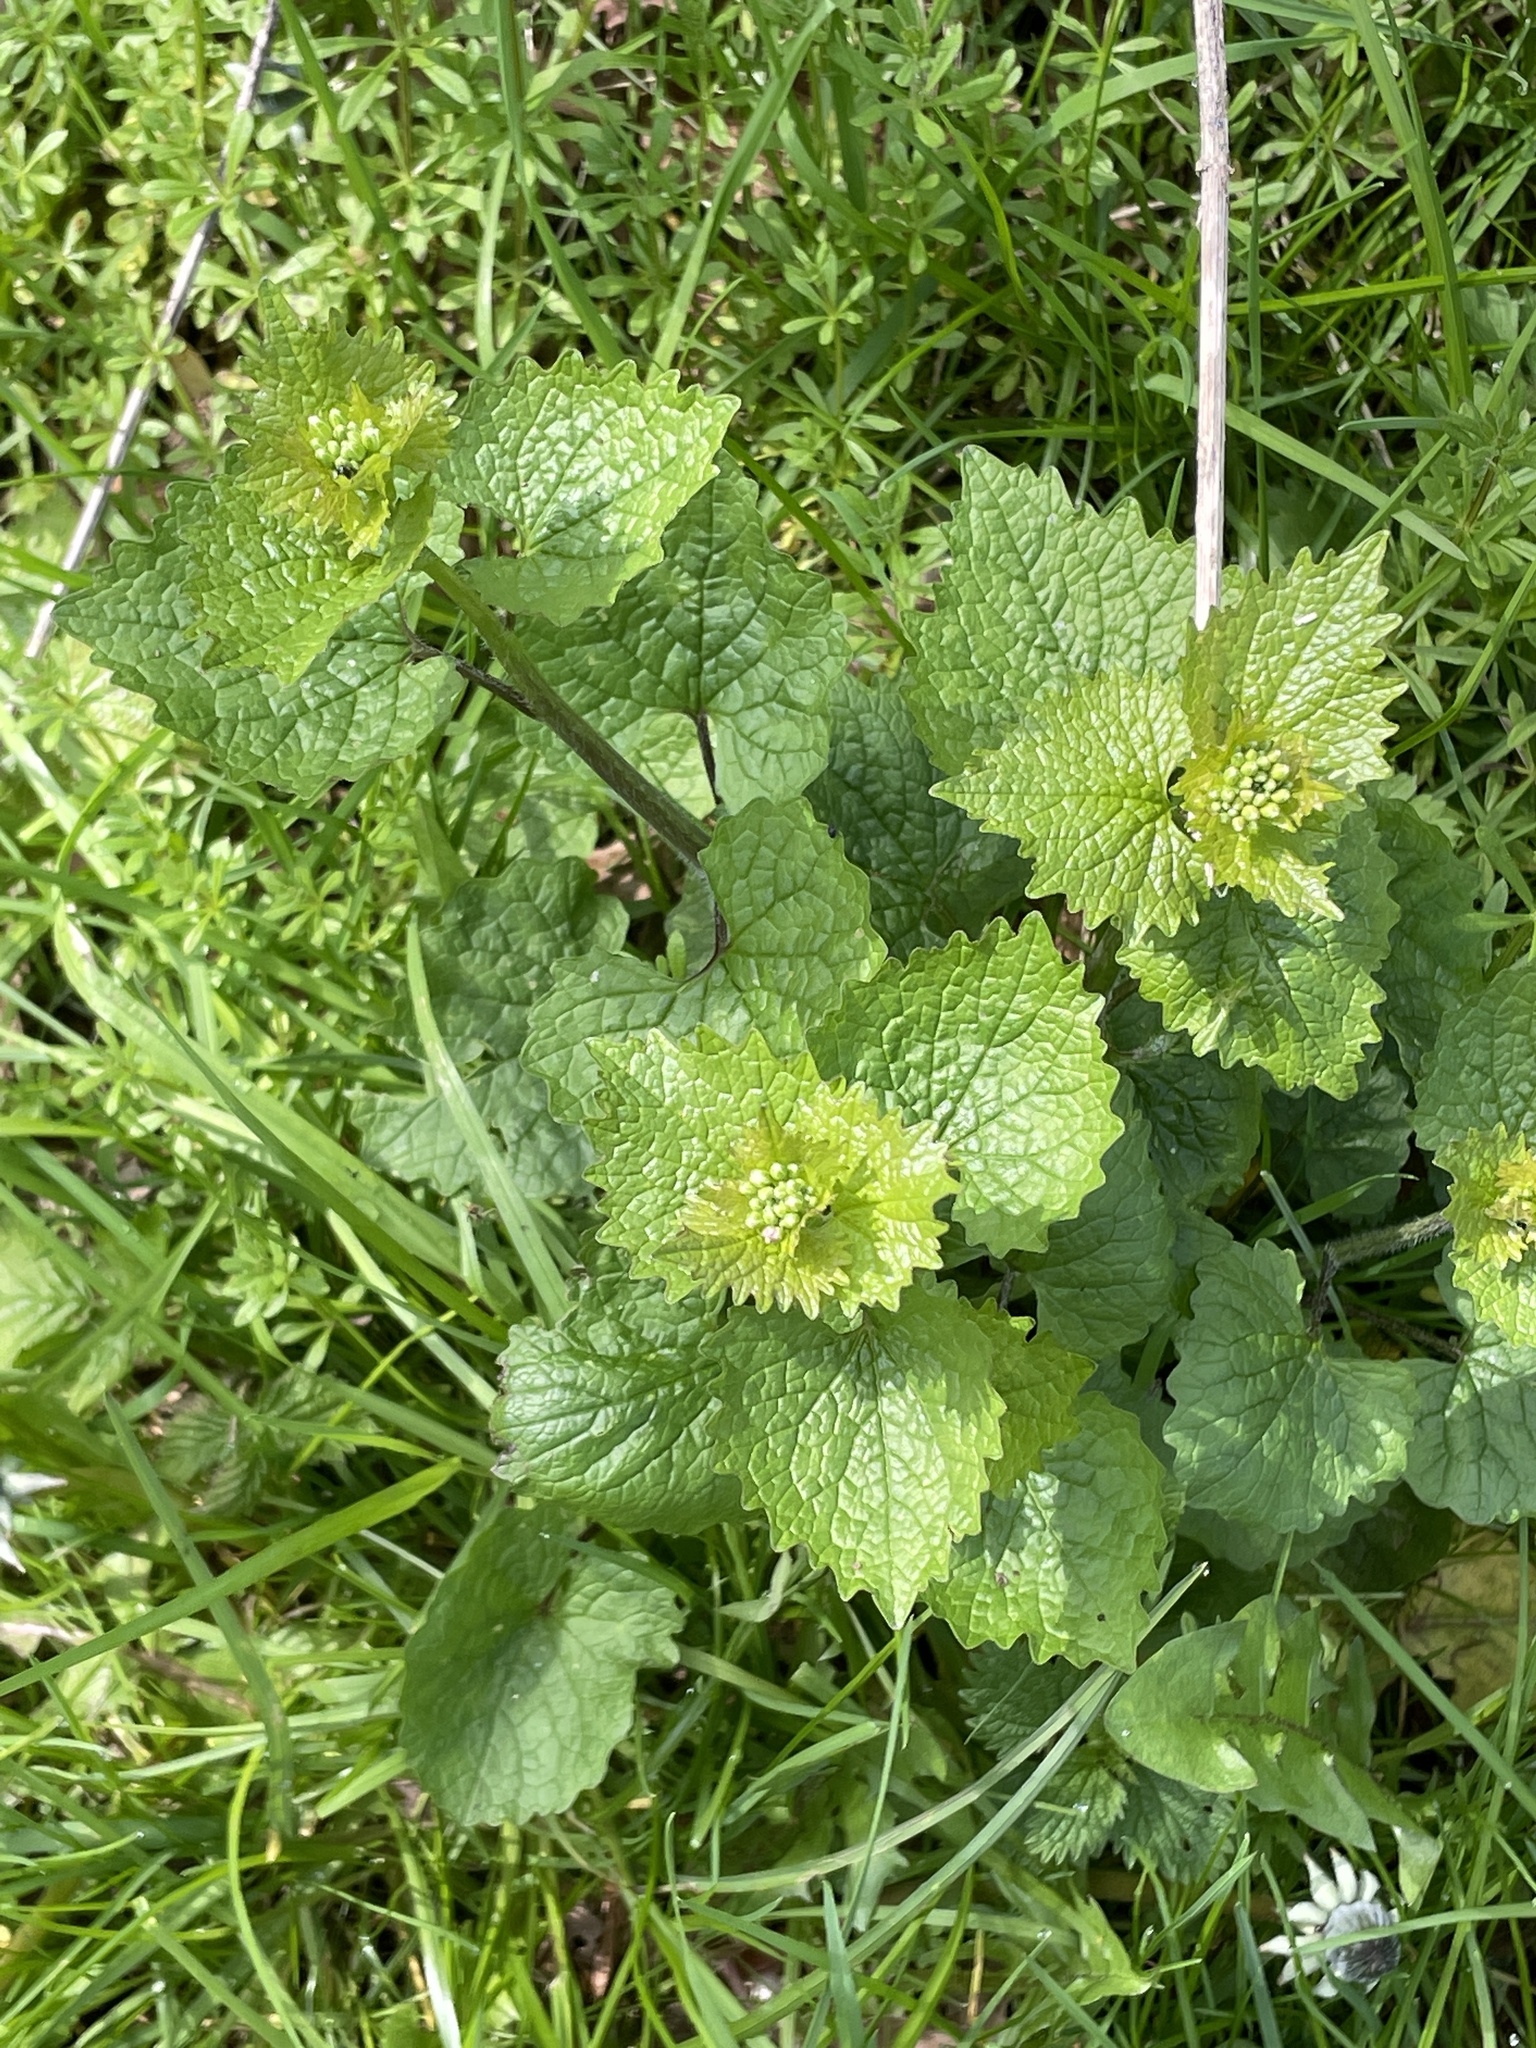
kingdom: Plantae
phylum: Tracheophyta
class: Magnoliopsida
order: Brassicales
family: Brassicaceae
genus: Alliaria
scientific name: Alliaria petiolata
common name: Garlic mustard
